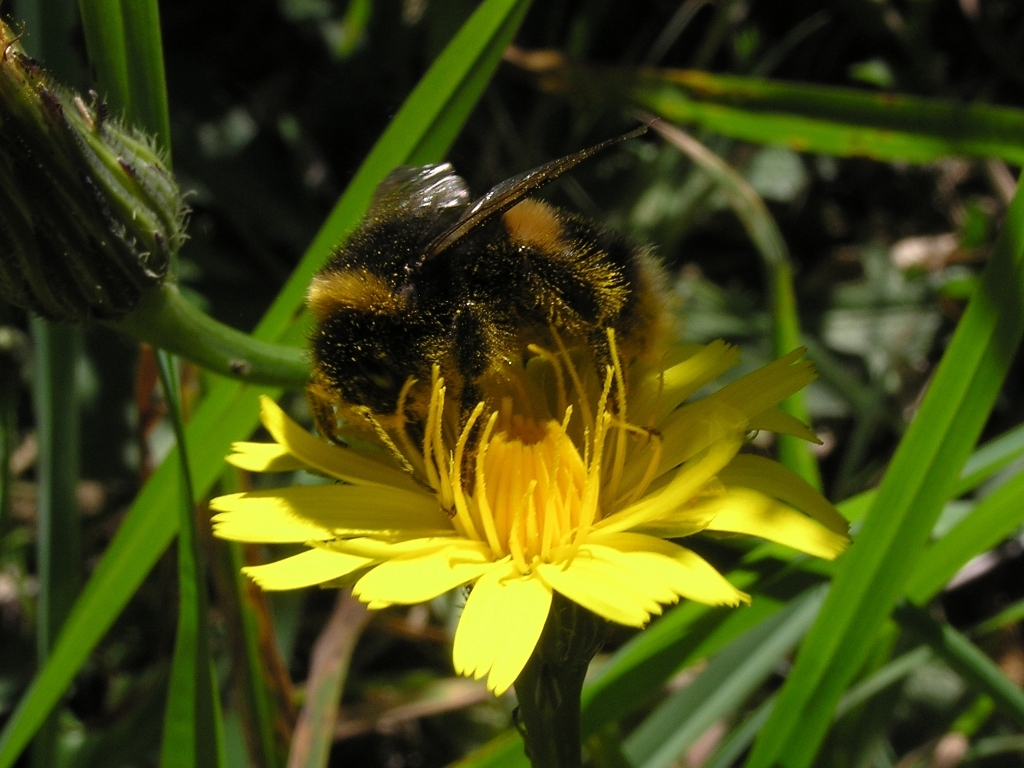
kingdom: Animalia
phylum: Arthropoda
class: Insecta
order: Hymenoptera
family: Apidae
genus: Bombus
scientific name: Bombus terrestris
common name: Buff-tailed bumblebee
